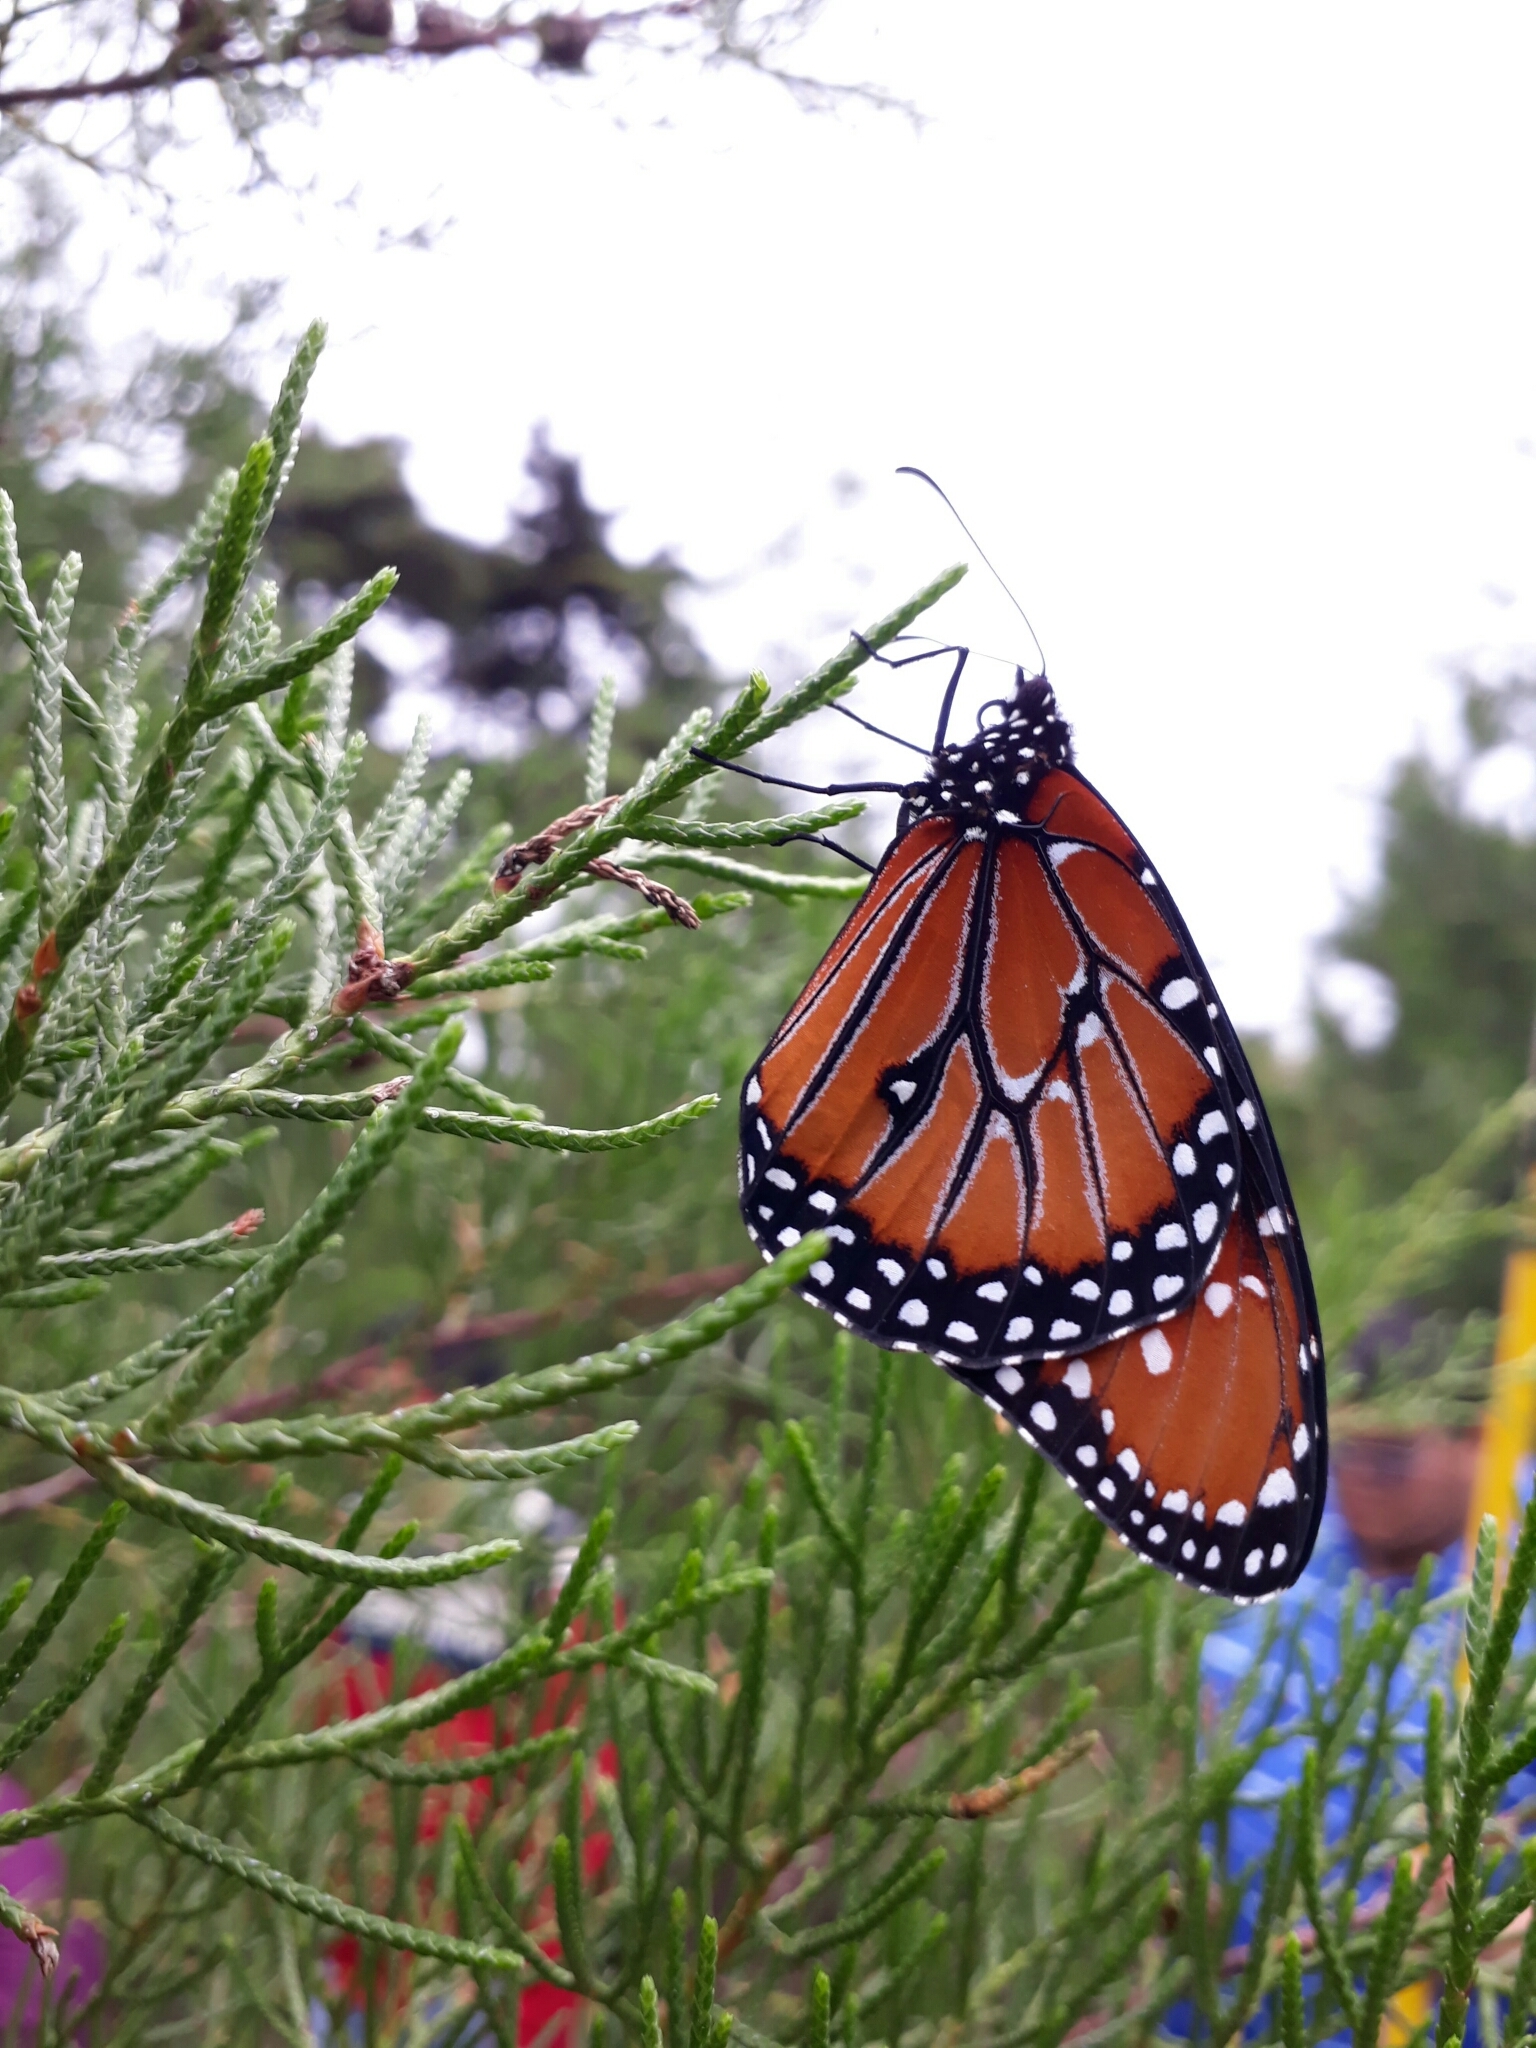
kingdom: Animalia
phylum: Arthropoda
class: Insecta
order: Lepidoptera
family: Nymphalidae
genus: Danaus
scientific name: Danaus gilippus
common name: Queen
